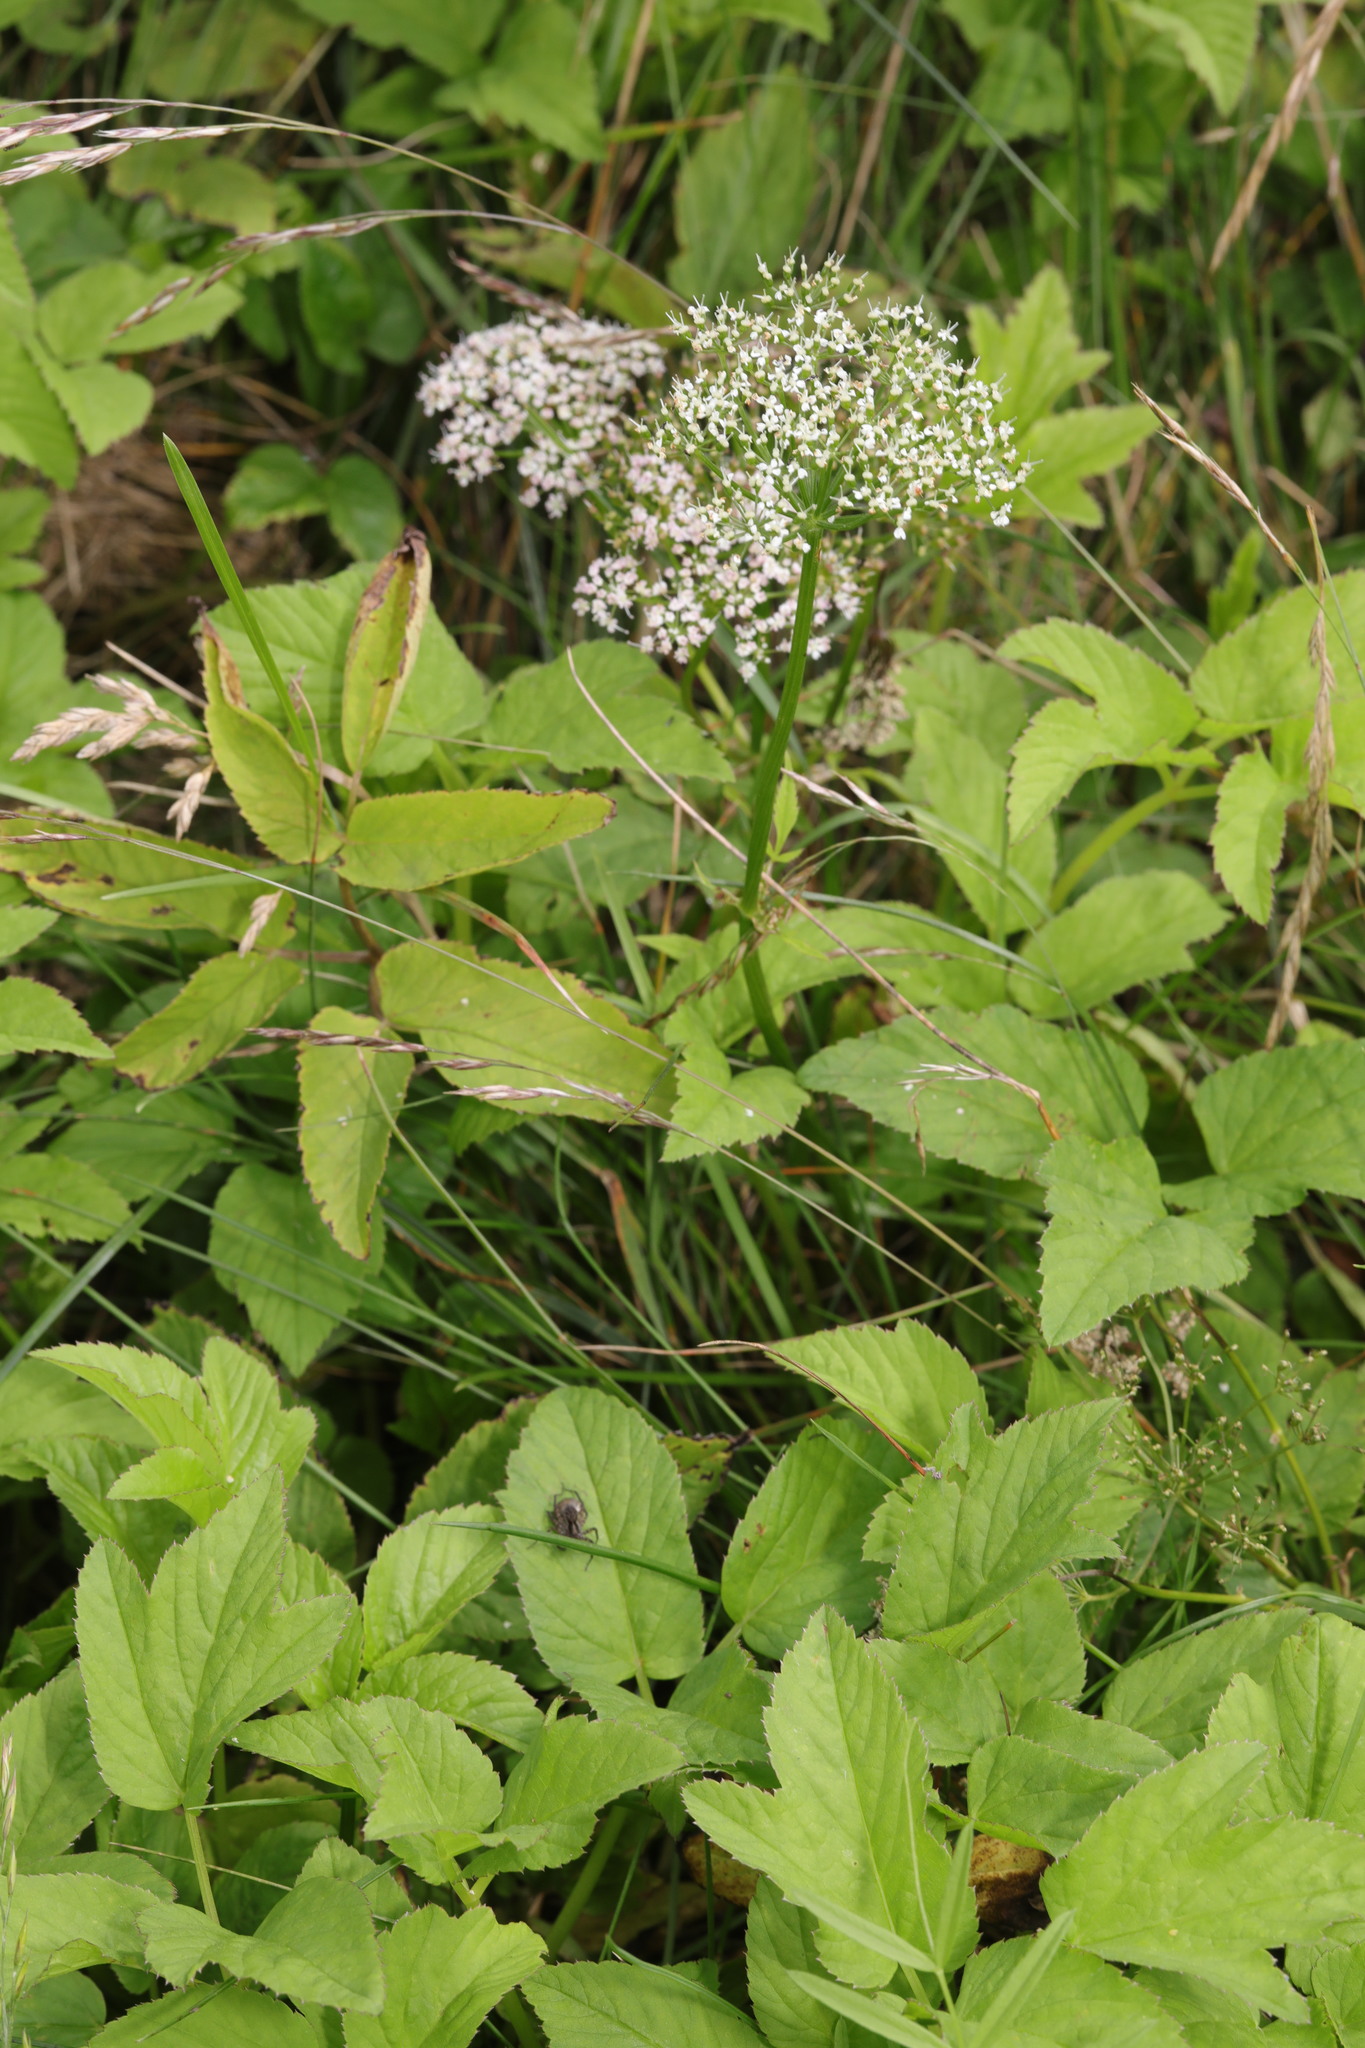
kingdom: Plantae
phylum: Tracheophyta
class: Magnoliopsida
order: Apiales
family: Apiaceae
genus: Aegopodium
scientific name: Aegopodium podagraria
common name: Ground-elder
